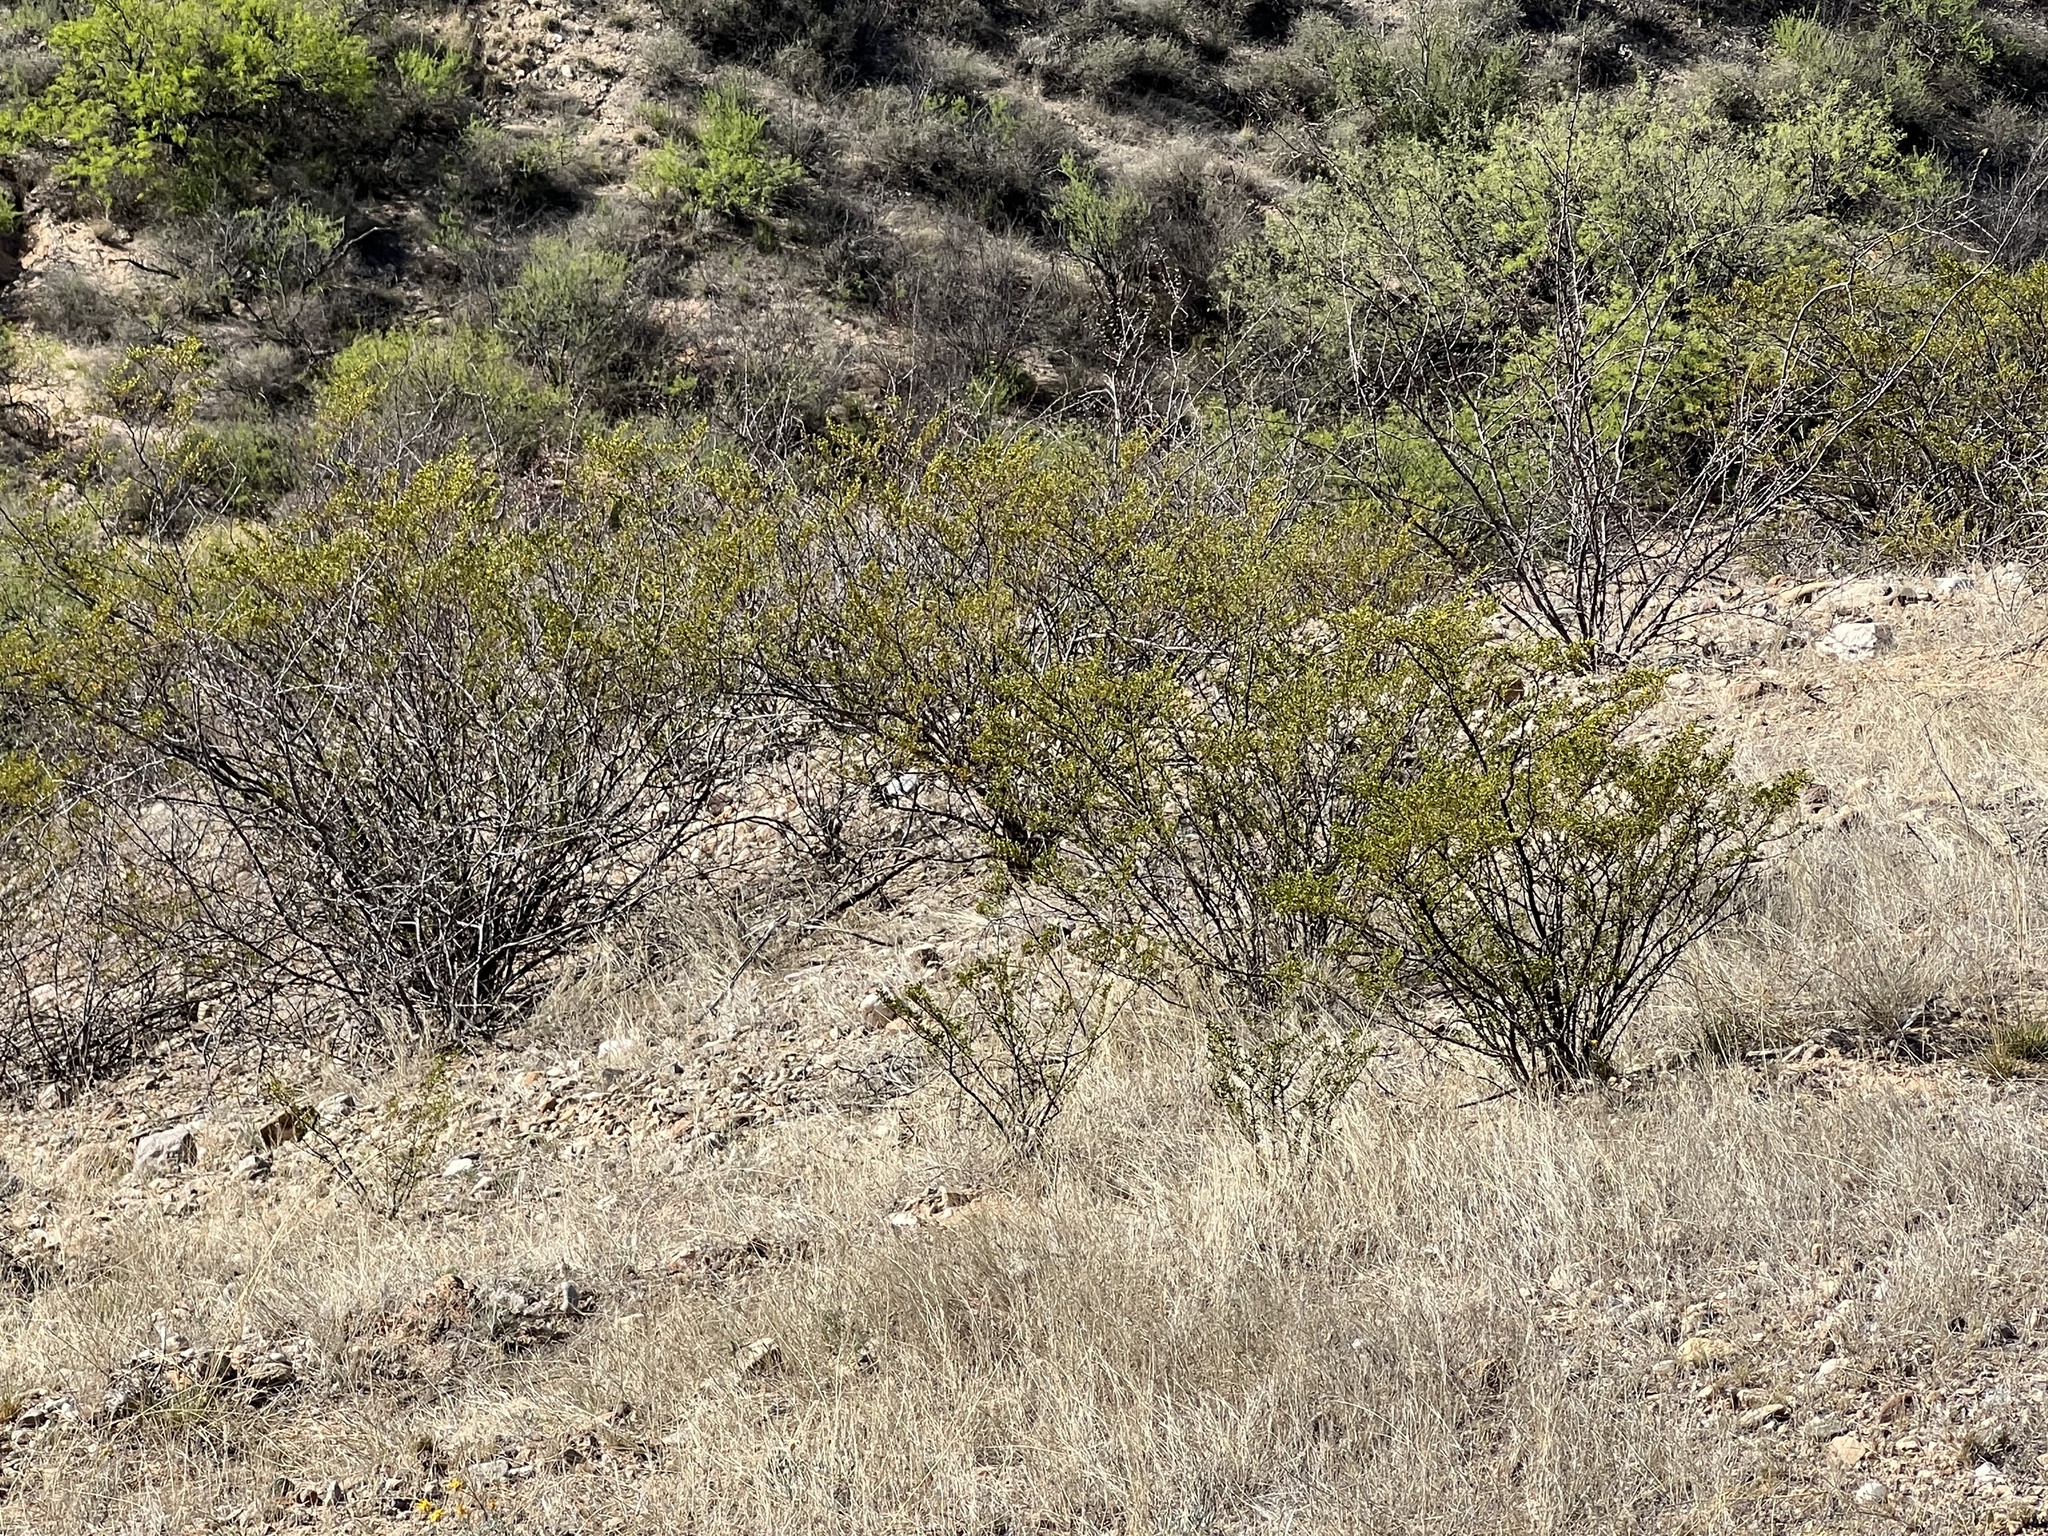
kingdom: Plantae
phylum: Tracheophyta
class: Magnoliopsida
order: Zygophyllales
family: Zygophyllaceae
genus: Larrea
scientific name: Larrea tridentata
